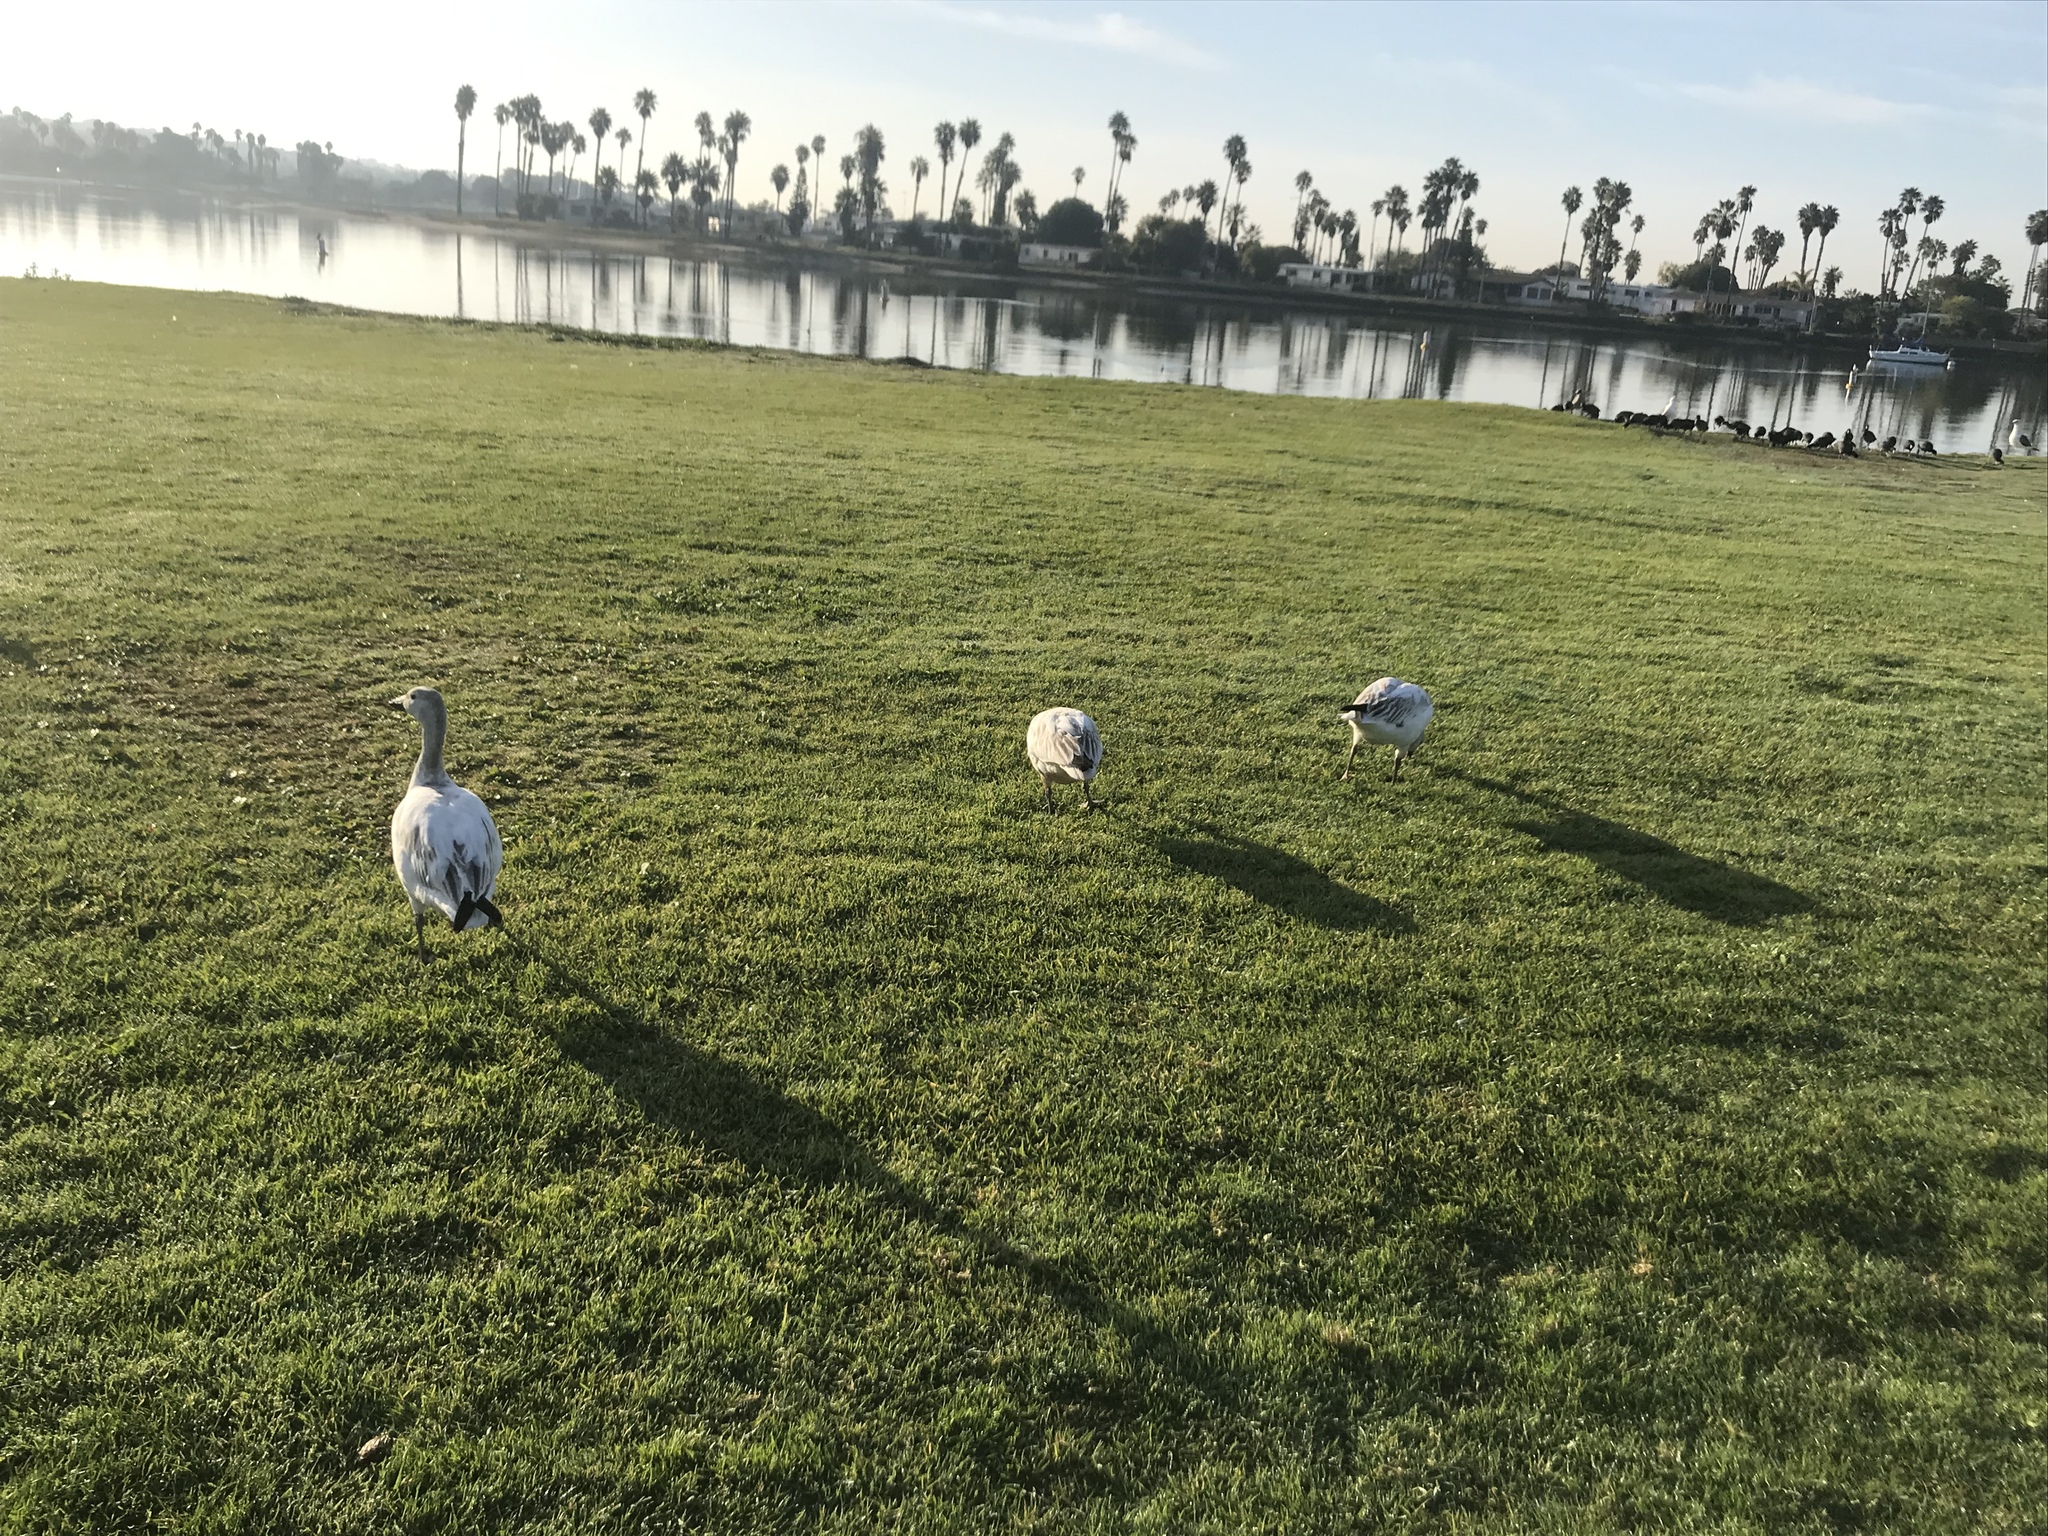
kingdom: Animalia
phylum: Chordata
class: Aves
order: Anseriformes
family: Anatidae
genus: Anser
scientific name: Anser caerulescens
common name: Snow goose
